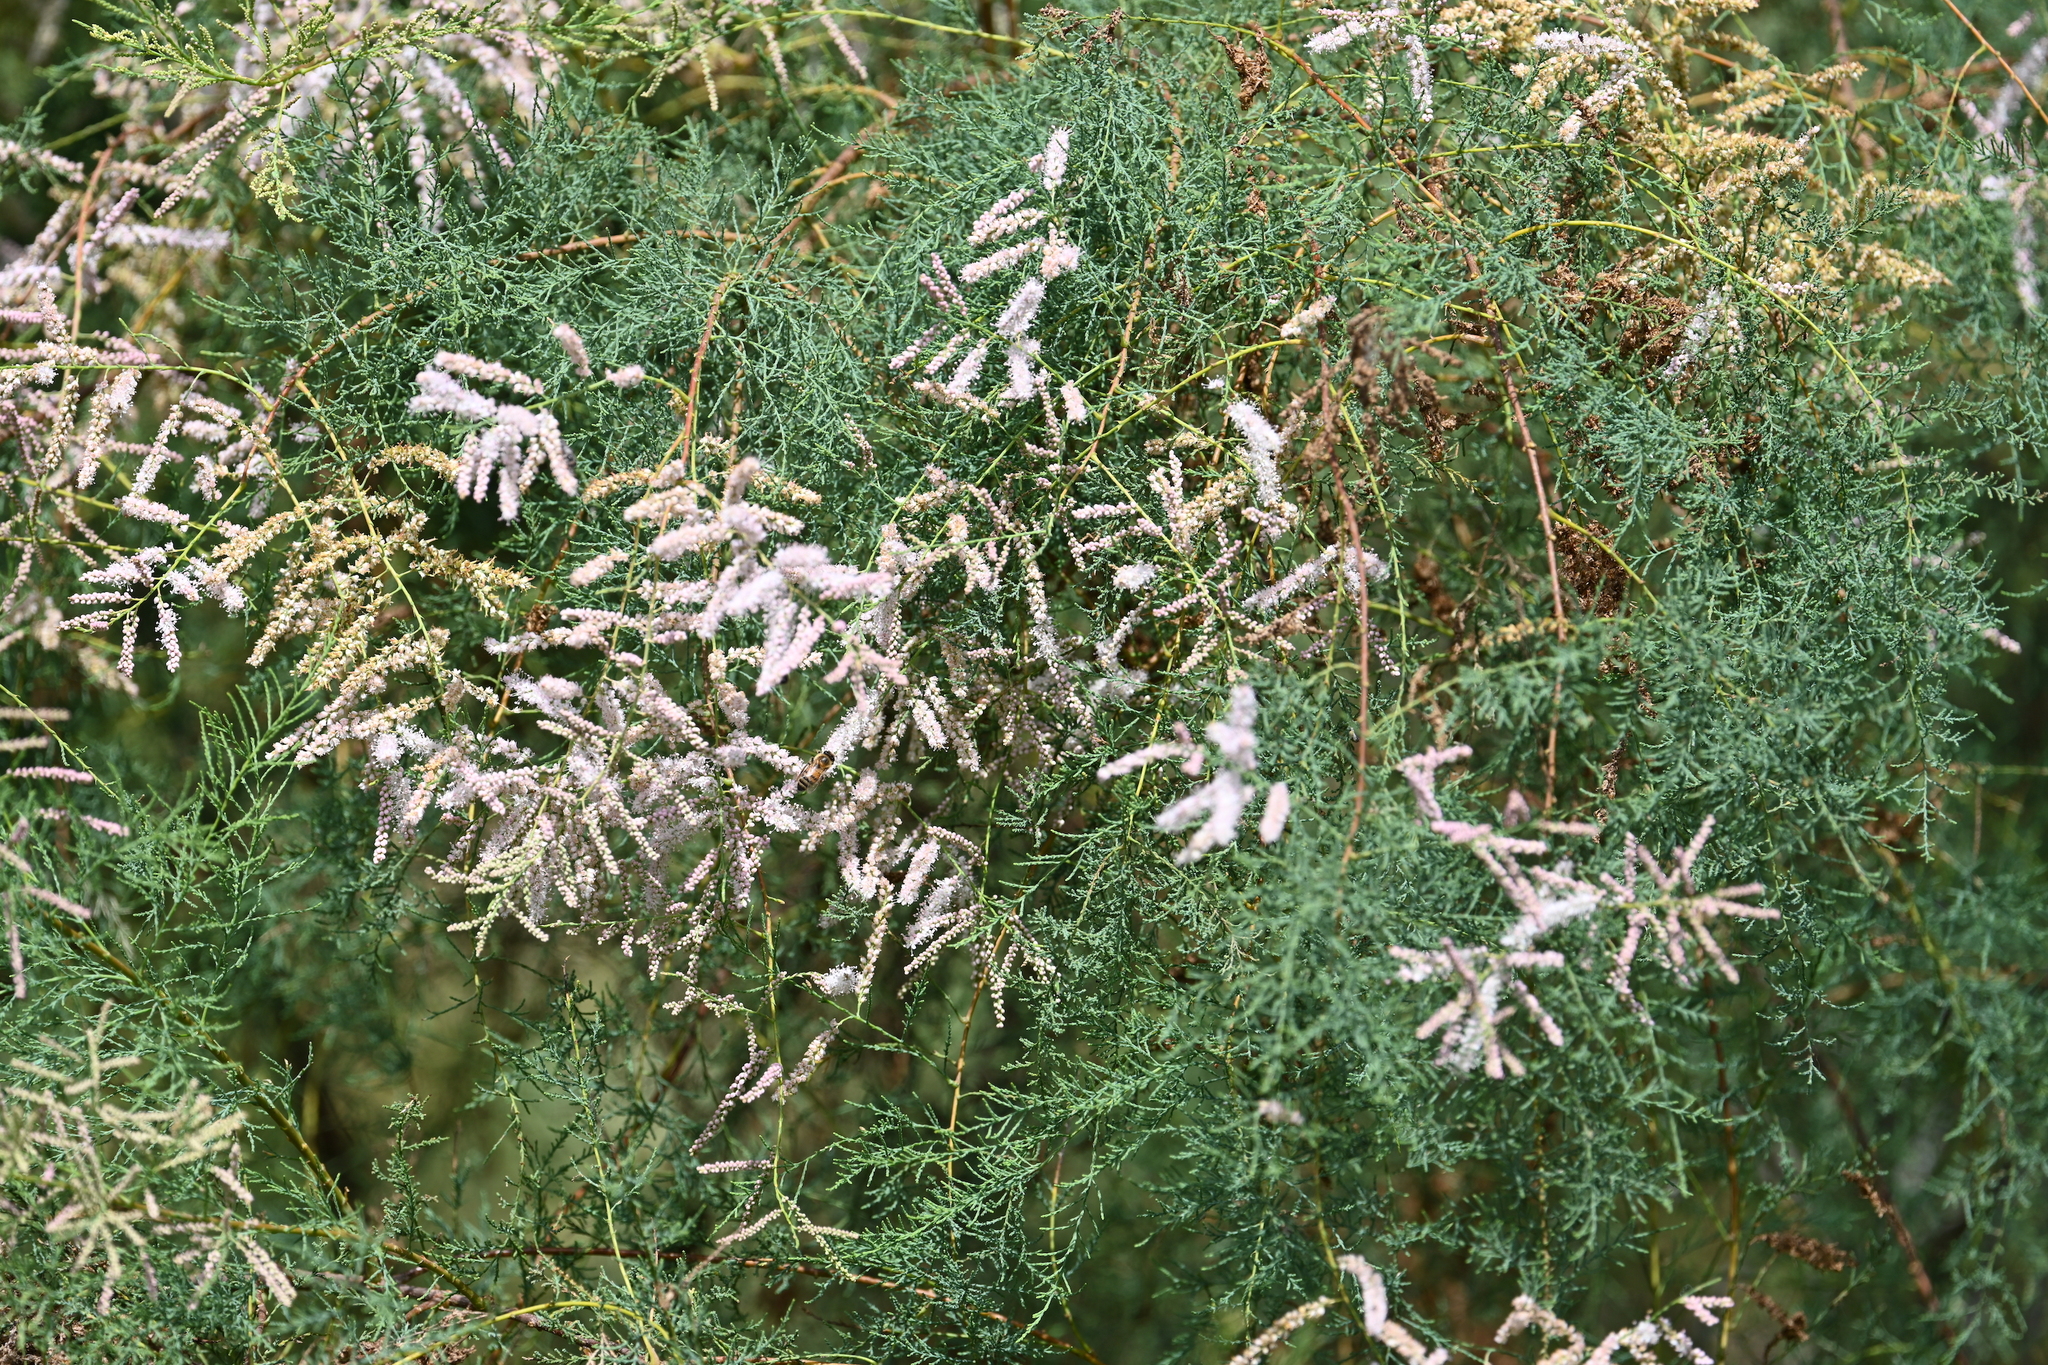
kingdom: Plantae
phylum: Tracheophyta
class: Magnoliopsida
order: Caryophyllales
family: Tamaricaceae
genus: Tamarix
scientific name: Tamarix ramosissima
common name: Pink tamarisk
